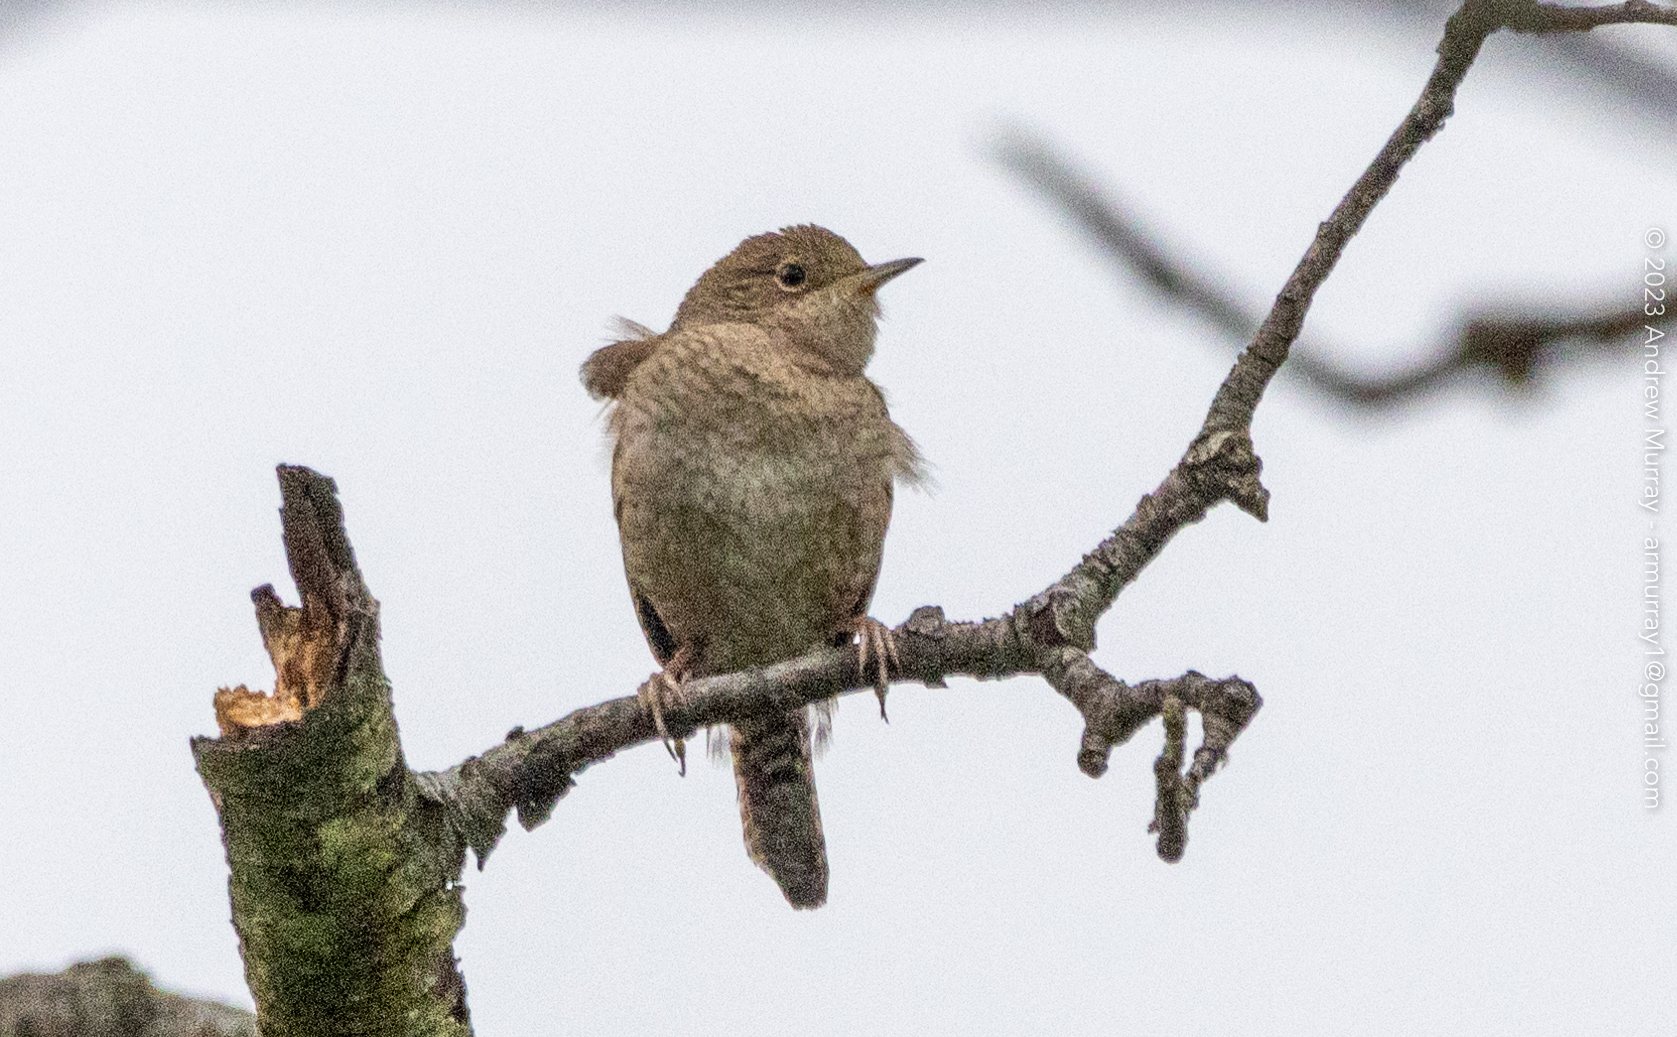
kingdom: Animalia
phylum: Chordata
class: Aves
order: Passeriformes
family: Troglodytidae
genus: Troglodytes
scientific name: Troglodytes aedon
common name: House wren
